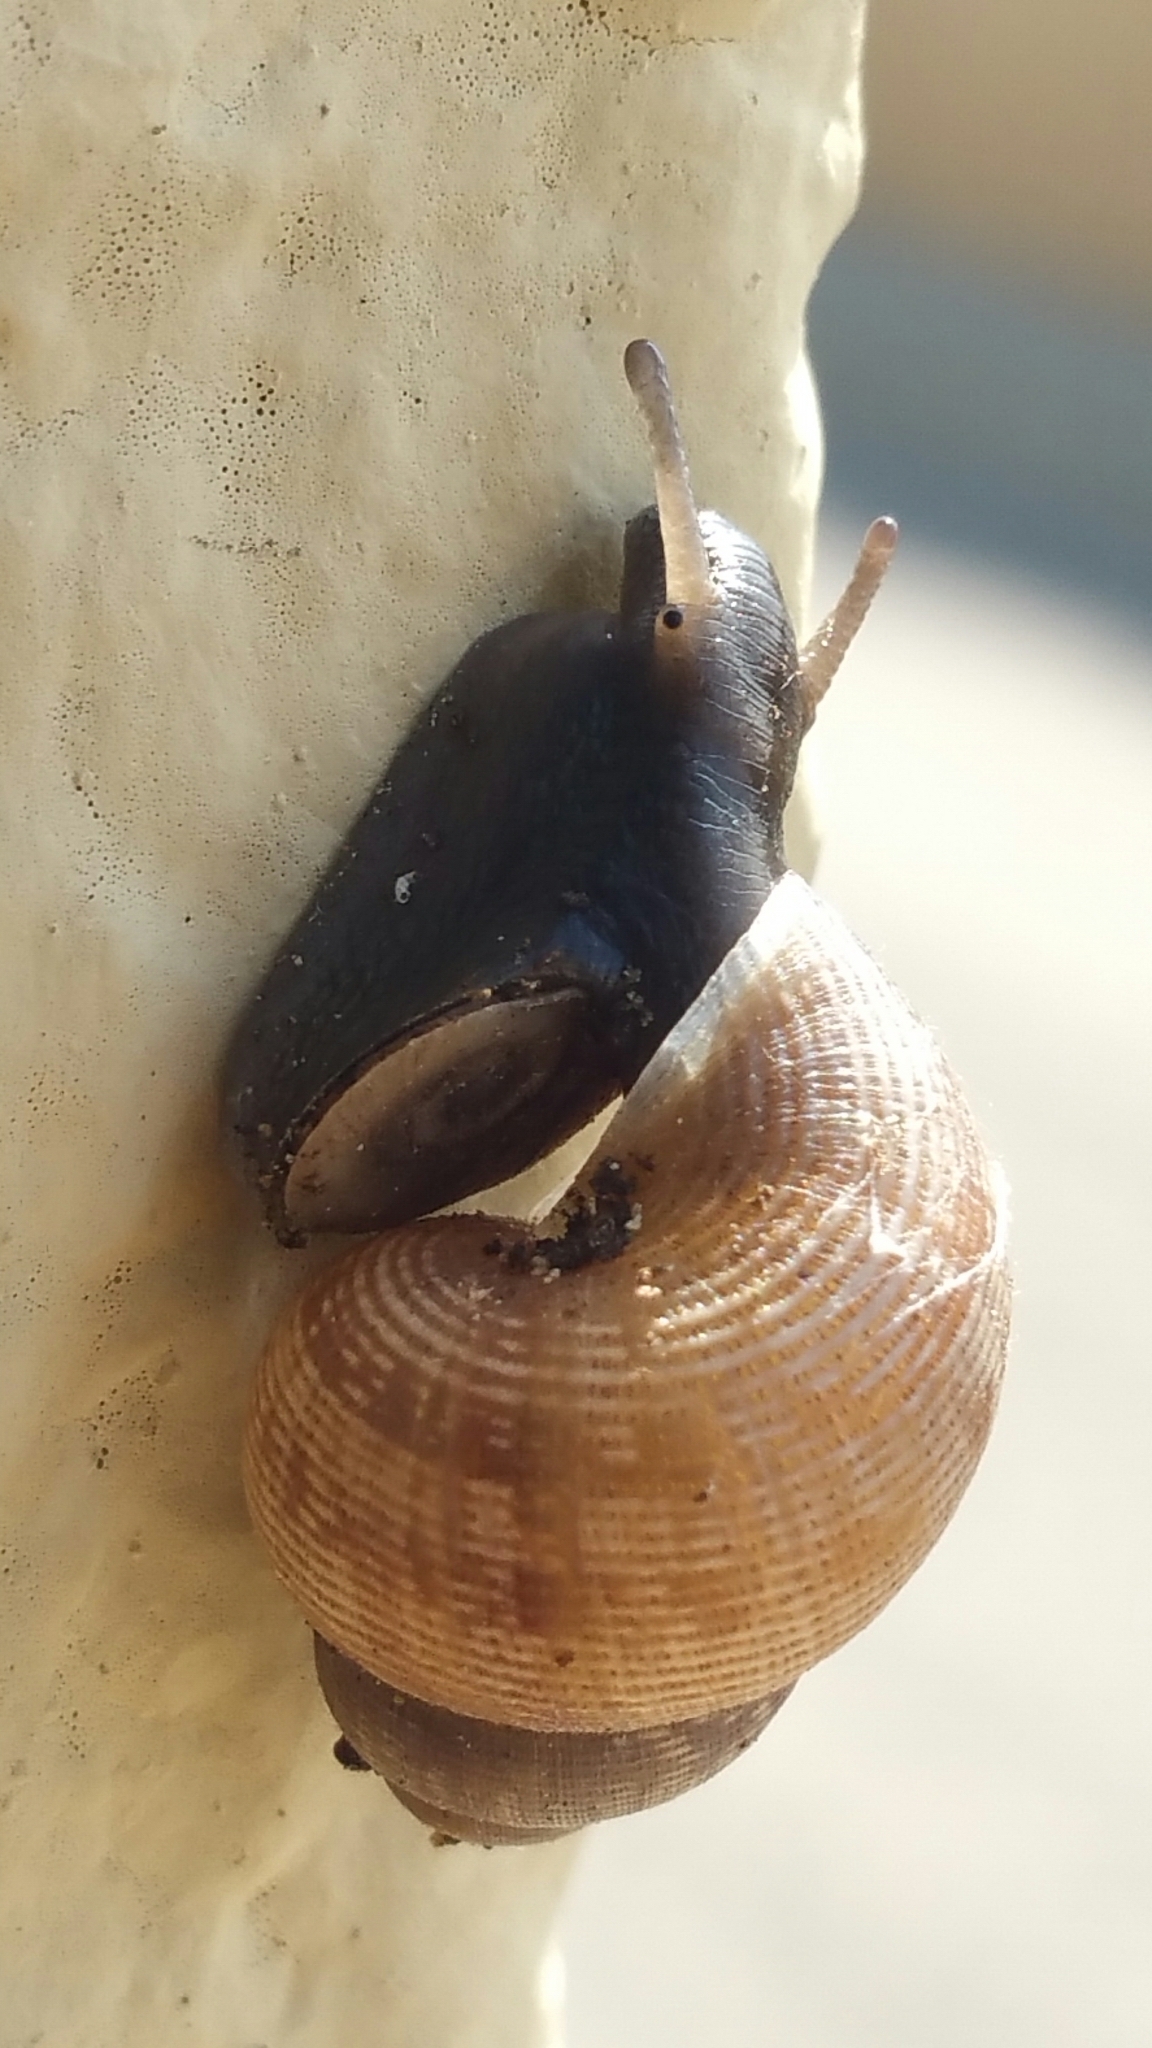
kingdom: Animalia
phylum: Mollusca
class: Gastropoda
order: Littorinimorpha
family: Pomatiidae
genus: Pomatias
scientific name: Pomatias elegans
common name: Red-mouthed snail
